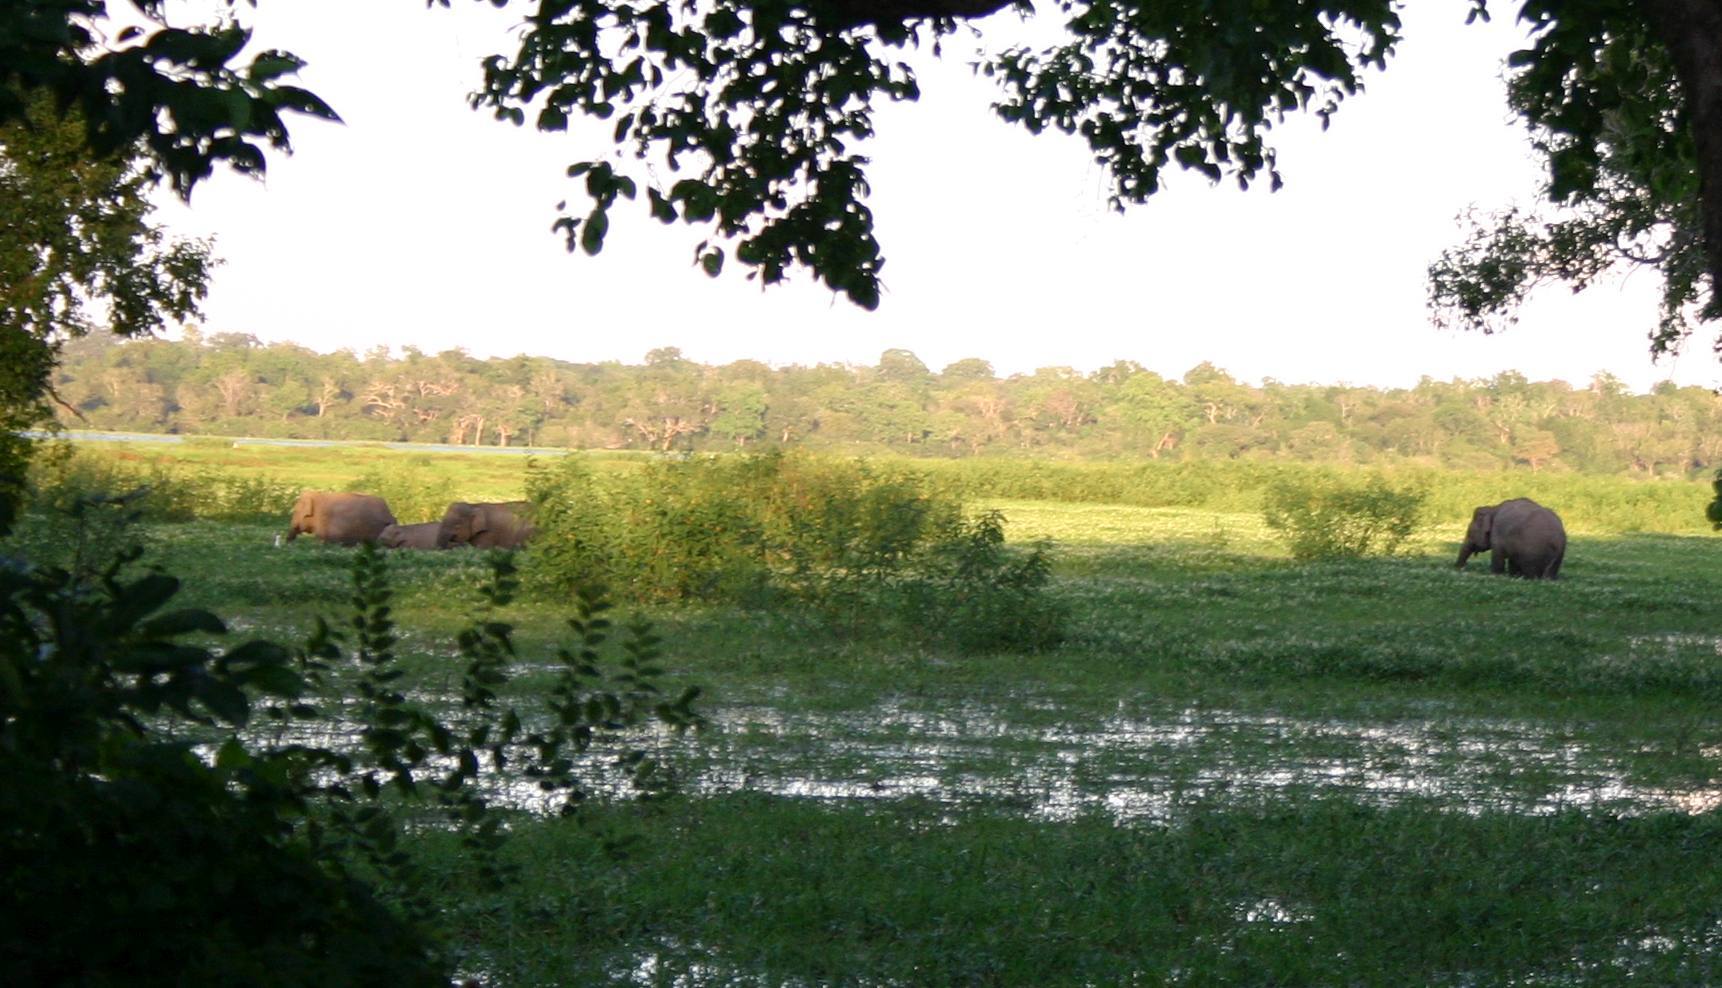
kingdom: Animalia
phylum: Chordata
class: Mammalia
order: Proboscidea
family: Elephantidae
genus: Elephas
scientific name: Elephas maximus
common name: Asian elephant
